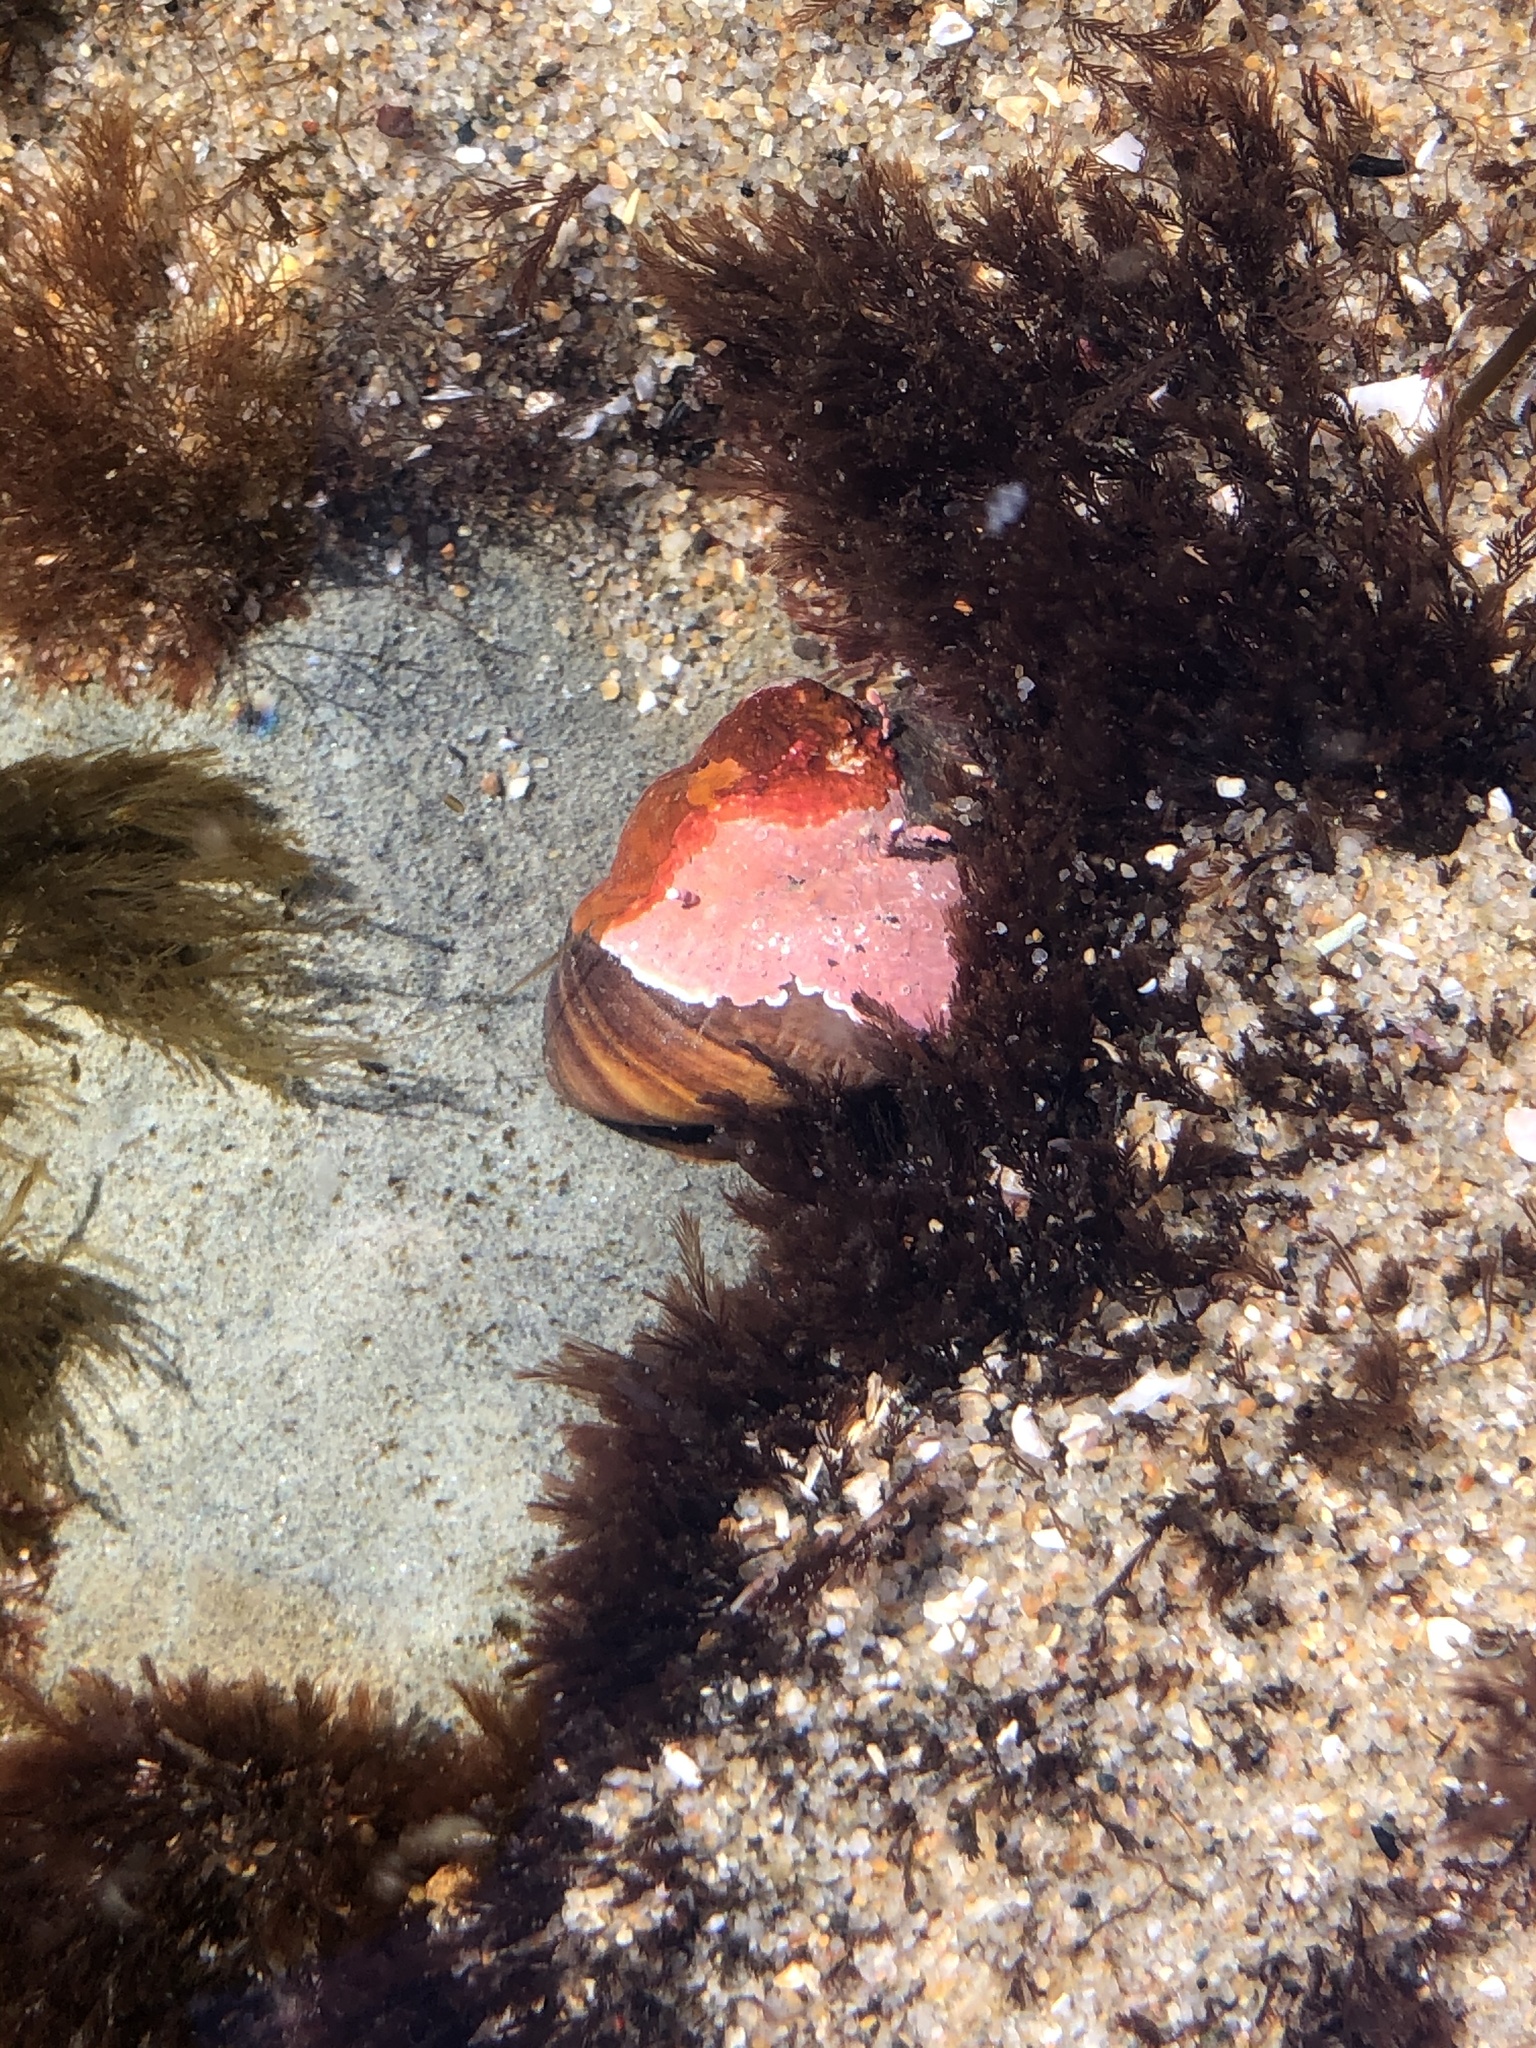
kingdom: Animalia
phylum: Mollusca
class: Gastropoda
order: Trochida
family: Tegulidae
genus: Tegula
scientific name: Tegula brunnea
